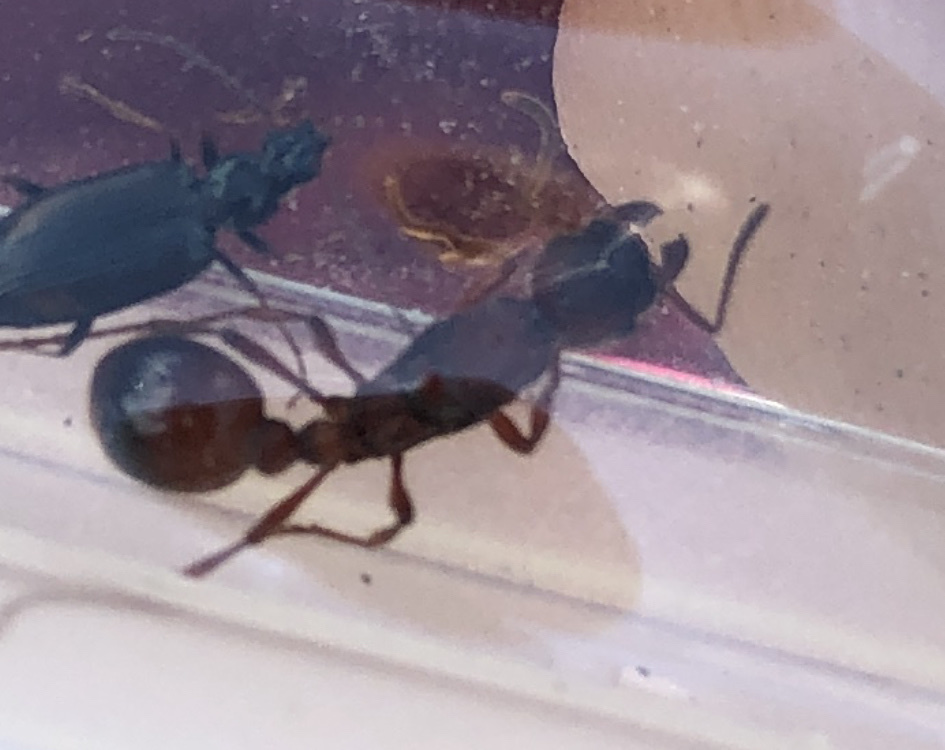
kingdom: Animalia
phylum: Arthropoda
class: Insecta
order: Hymenoptera
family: Formicidae
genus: Manica
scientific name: Manica rubida
